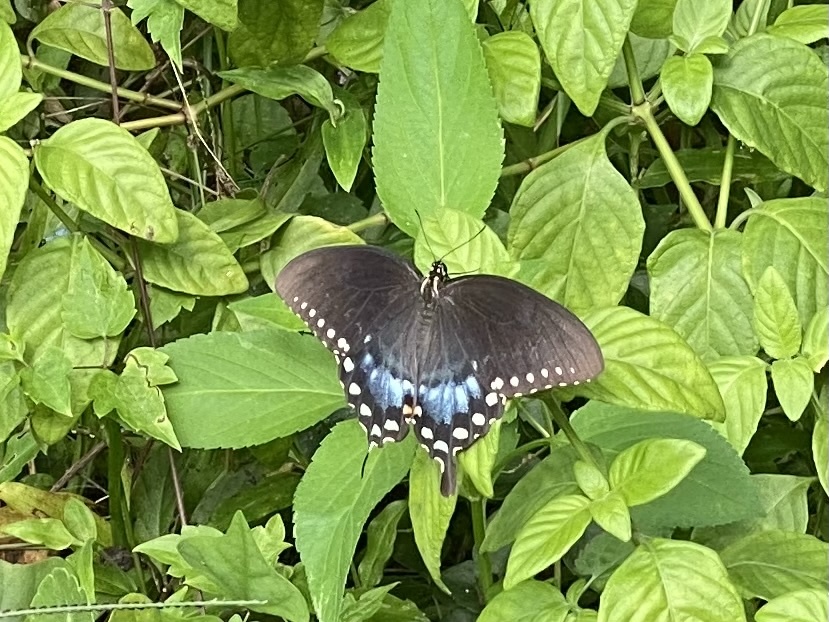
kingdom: Animalia
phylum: Arthropoda
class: Insecta
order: Lepidoptera
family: Papilionidae
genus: Papilio
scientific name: Papilio troilus
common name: Spicebush swallowtail
